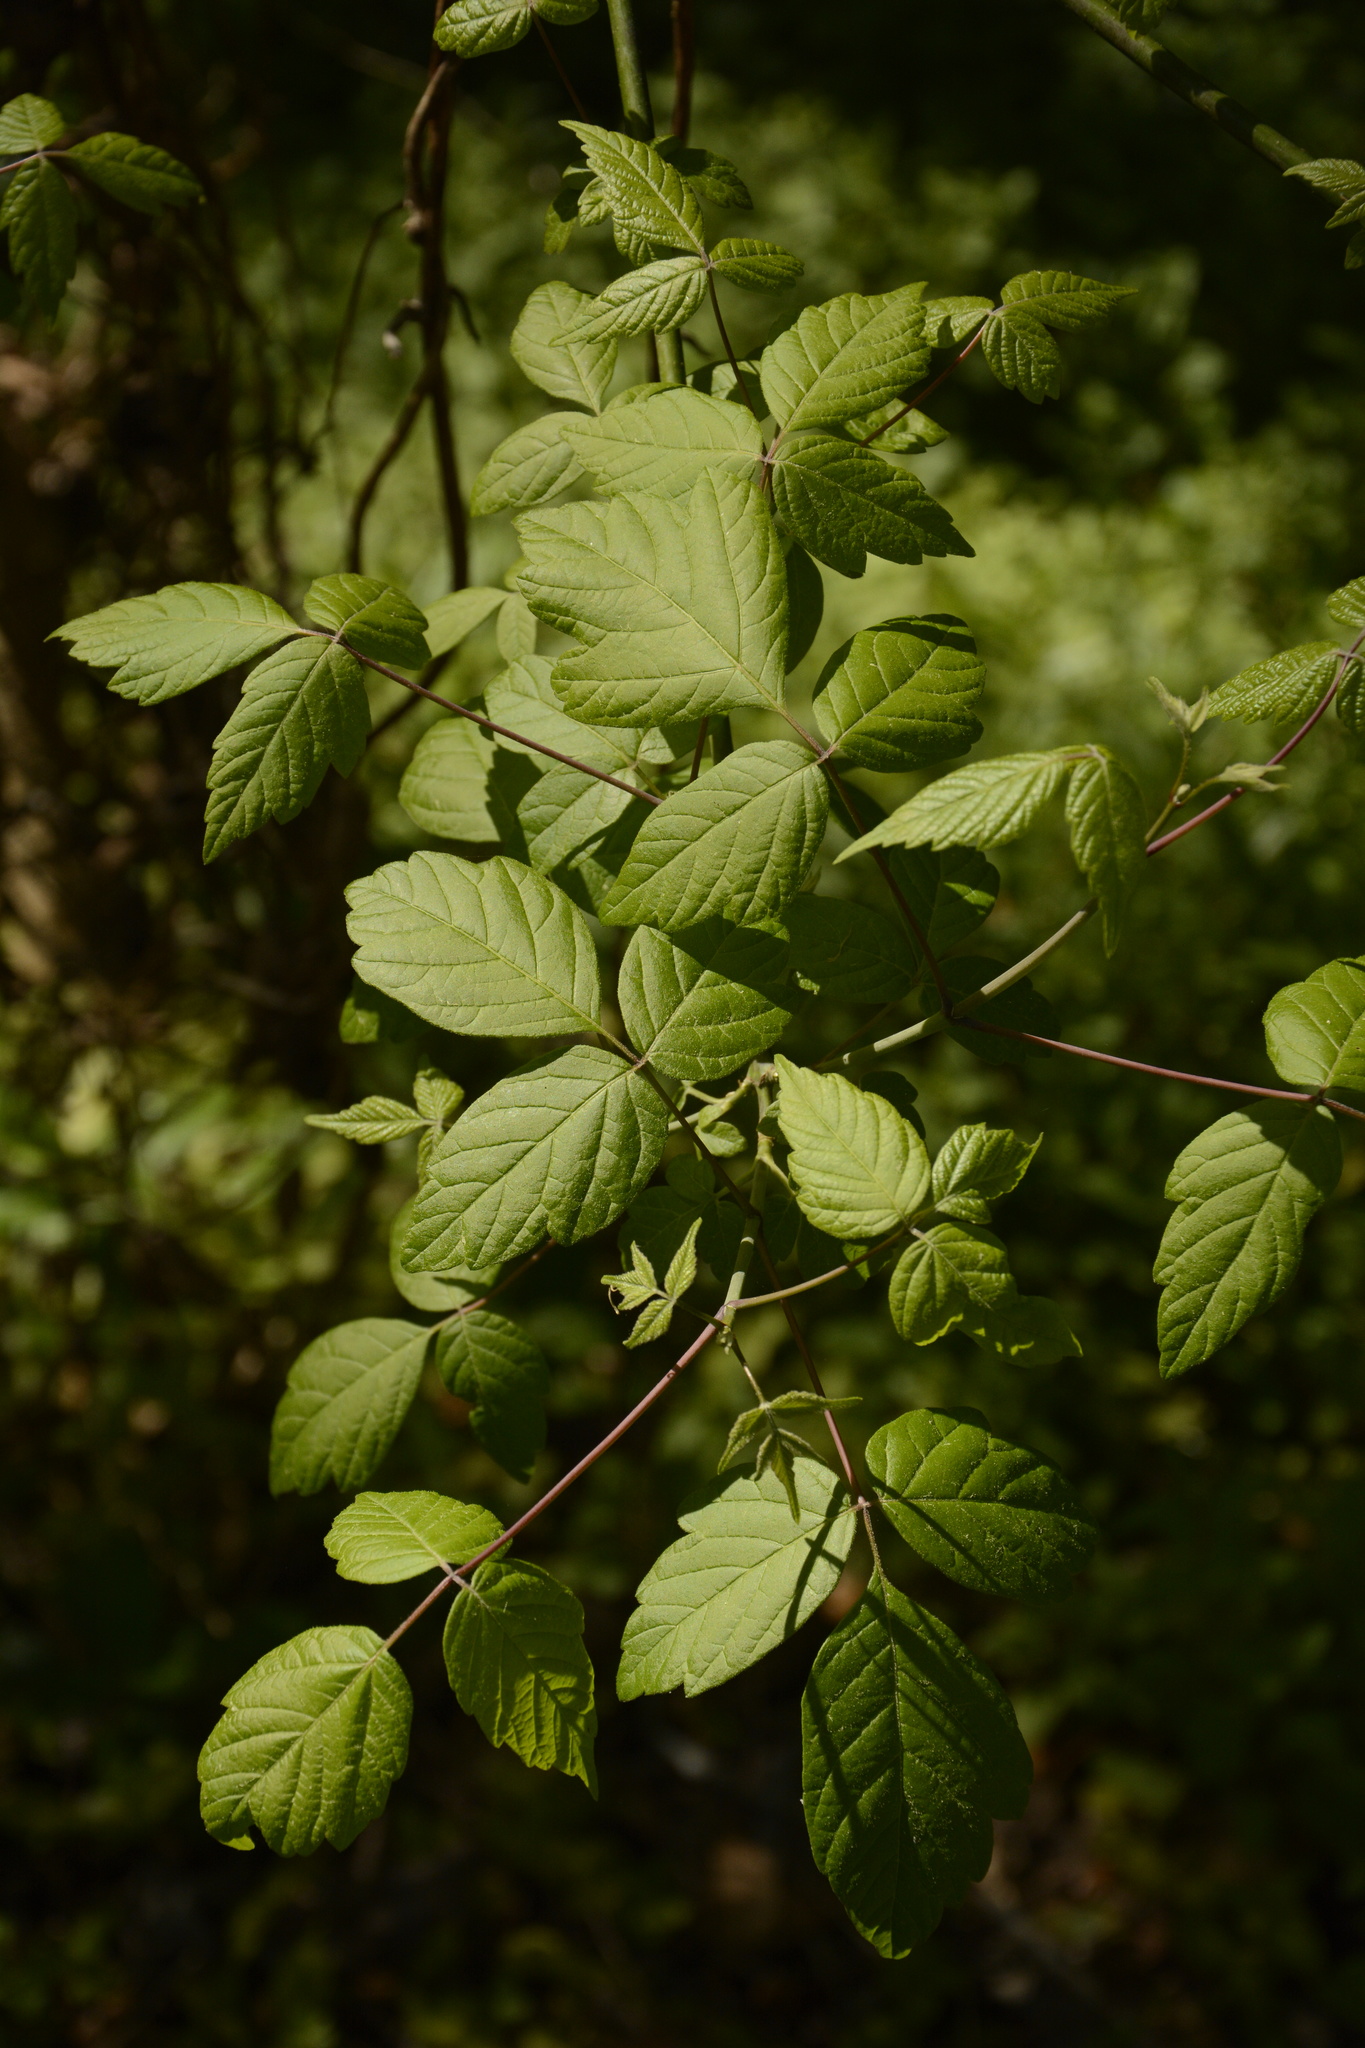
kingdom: Plantae
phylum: Tracheophyta
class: Magnoliopsida
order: Sapindales
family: Sapindaceae
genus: Acer
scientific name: Acer negundo
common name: Ashleaf maple
